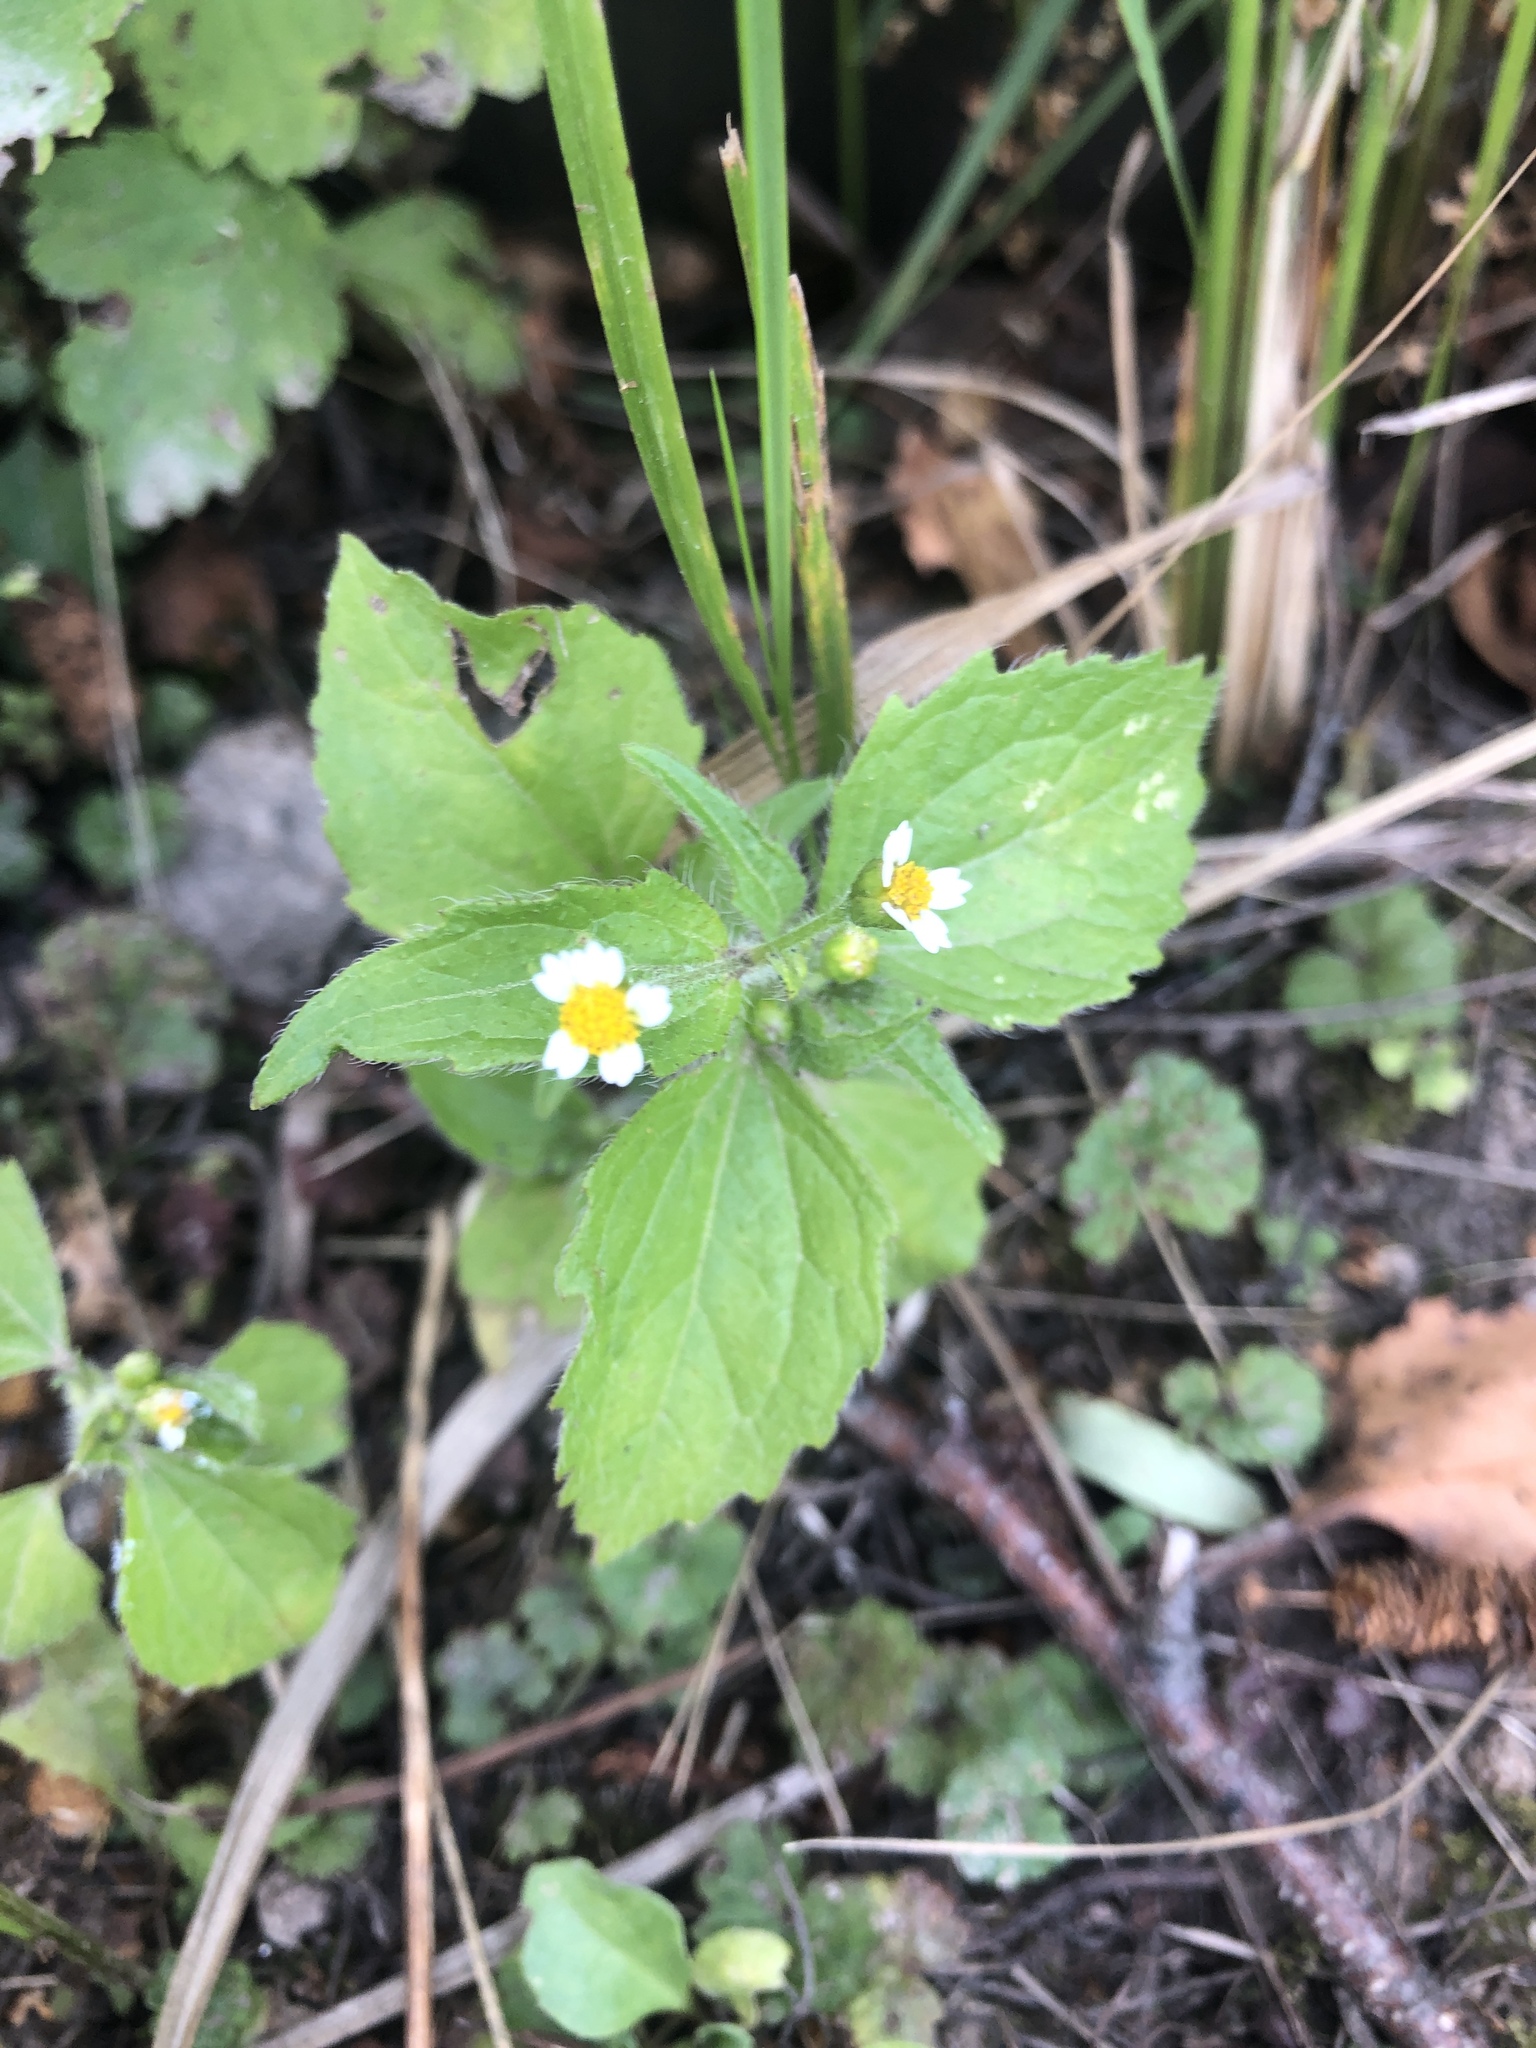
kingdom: Plantae
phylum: Tracheophyta
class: Magnoliopsida
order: Asterales
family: Asteraceae
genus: Galinsoga
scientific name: Galinsoga quadriradiata
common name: Shaggy soldier
